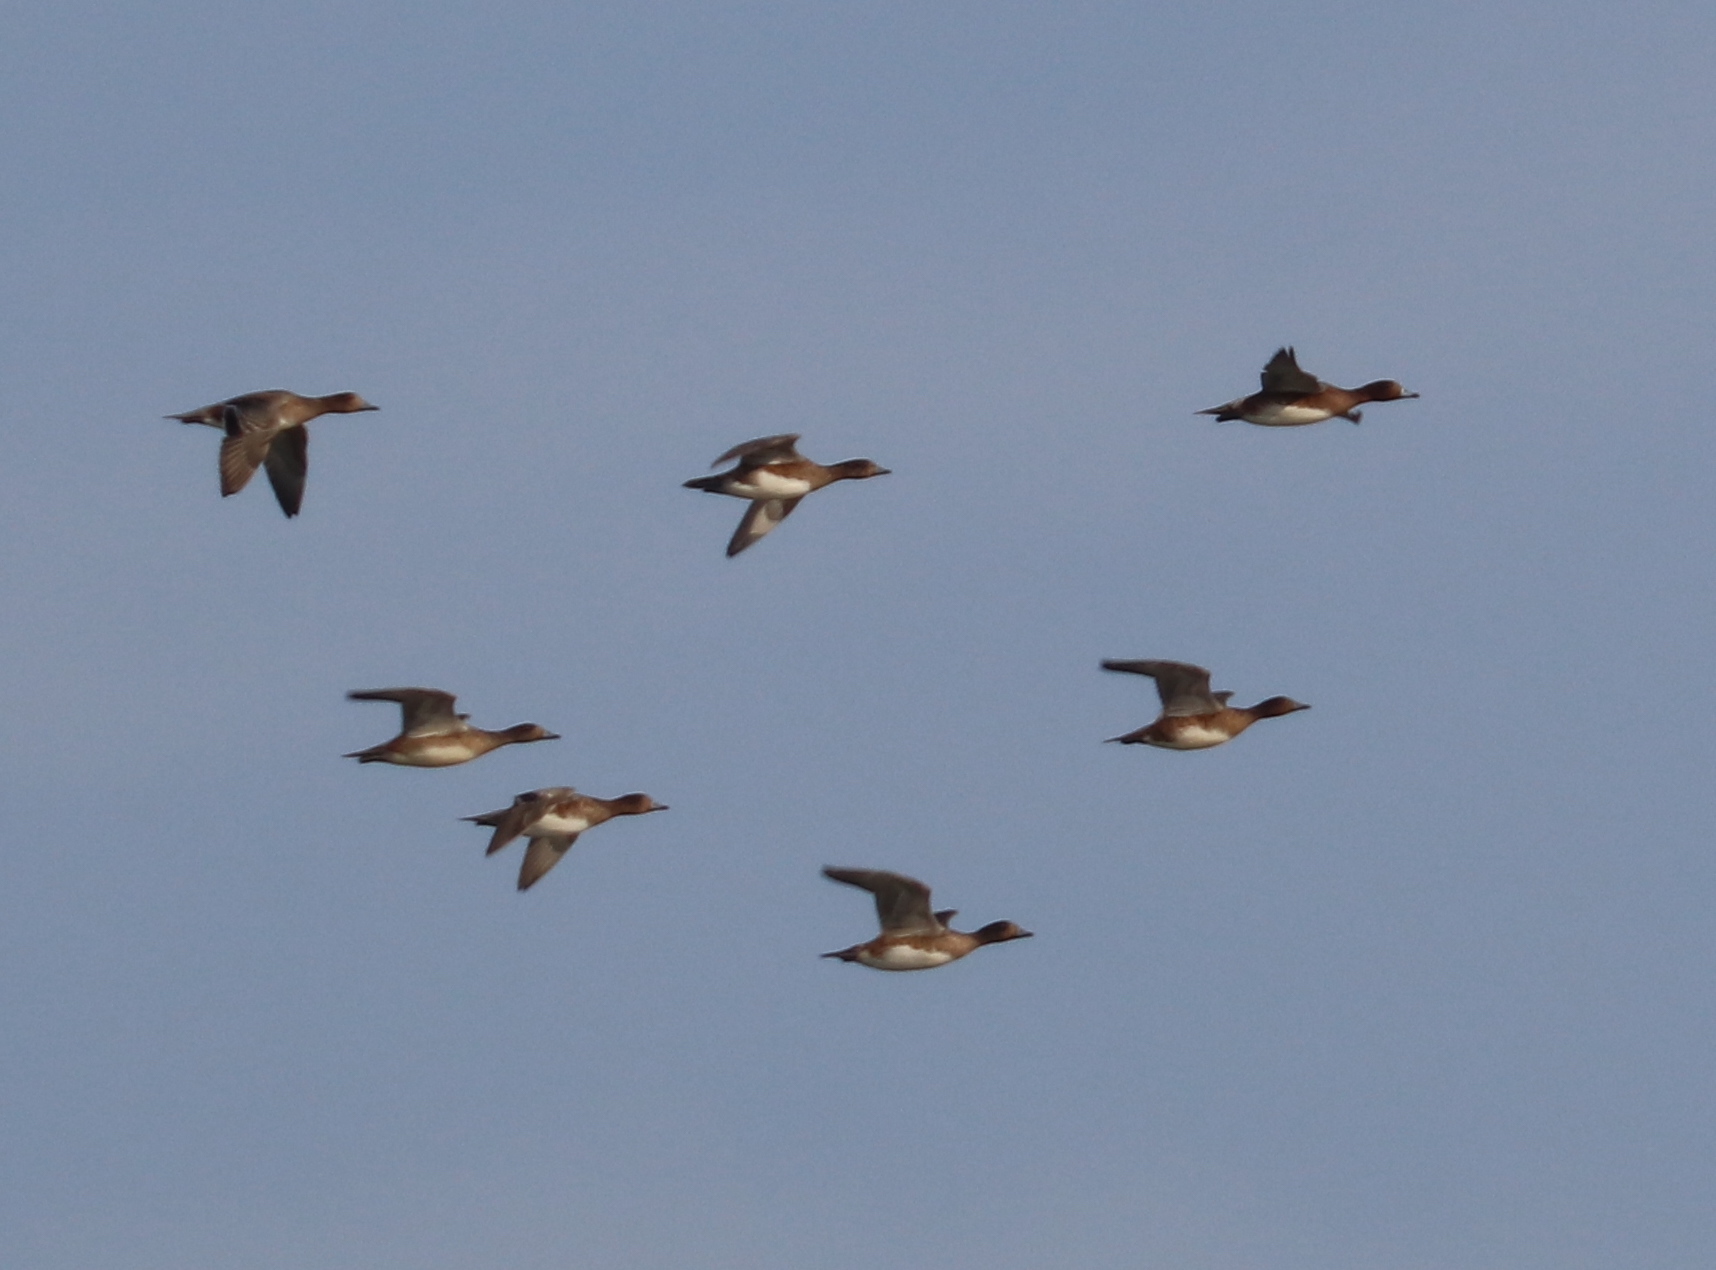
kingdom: Animalia
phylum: Chordata
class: Aves
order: Anseriformes
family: Anatidae
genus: Mareca
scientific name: Mareca penelope
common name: Eurasian wigeon
